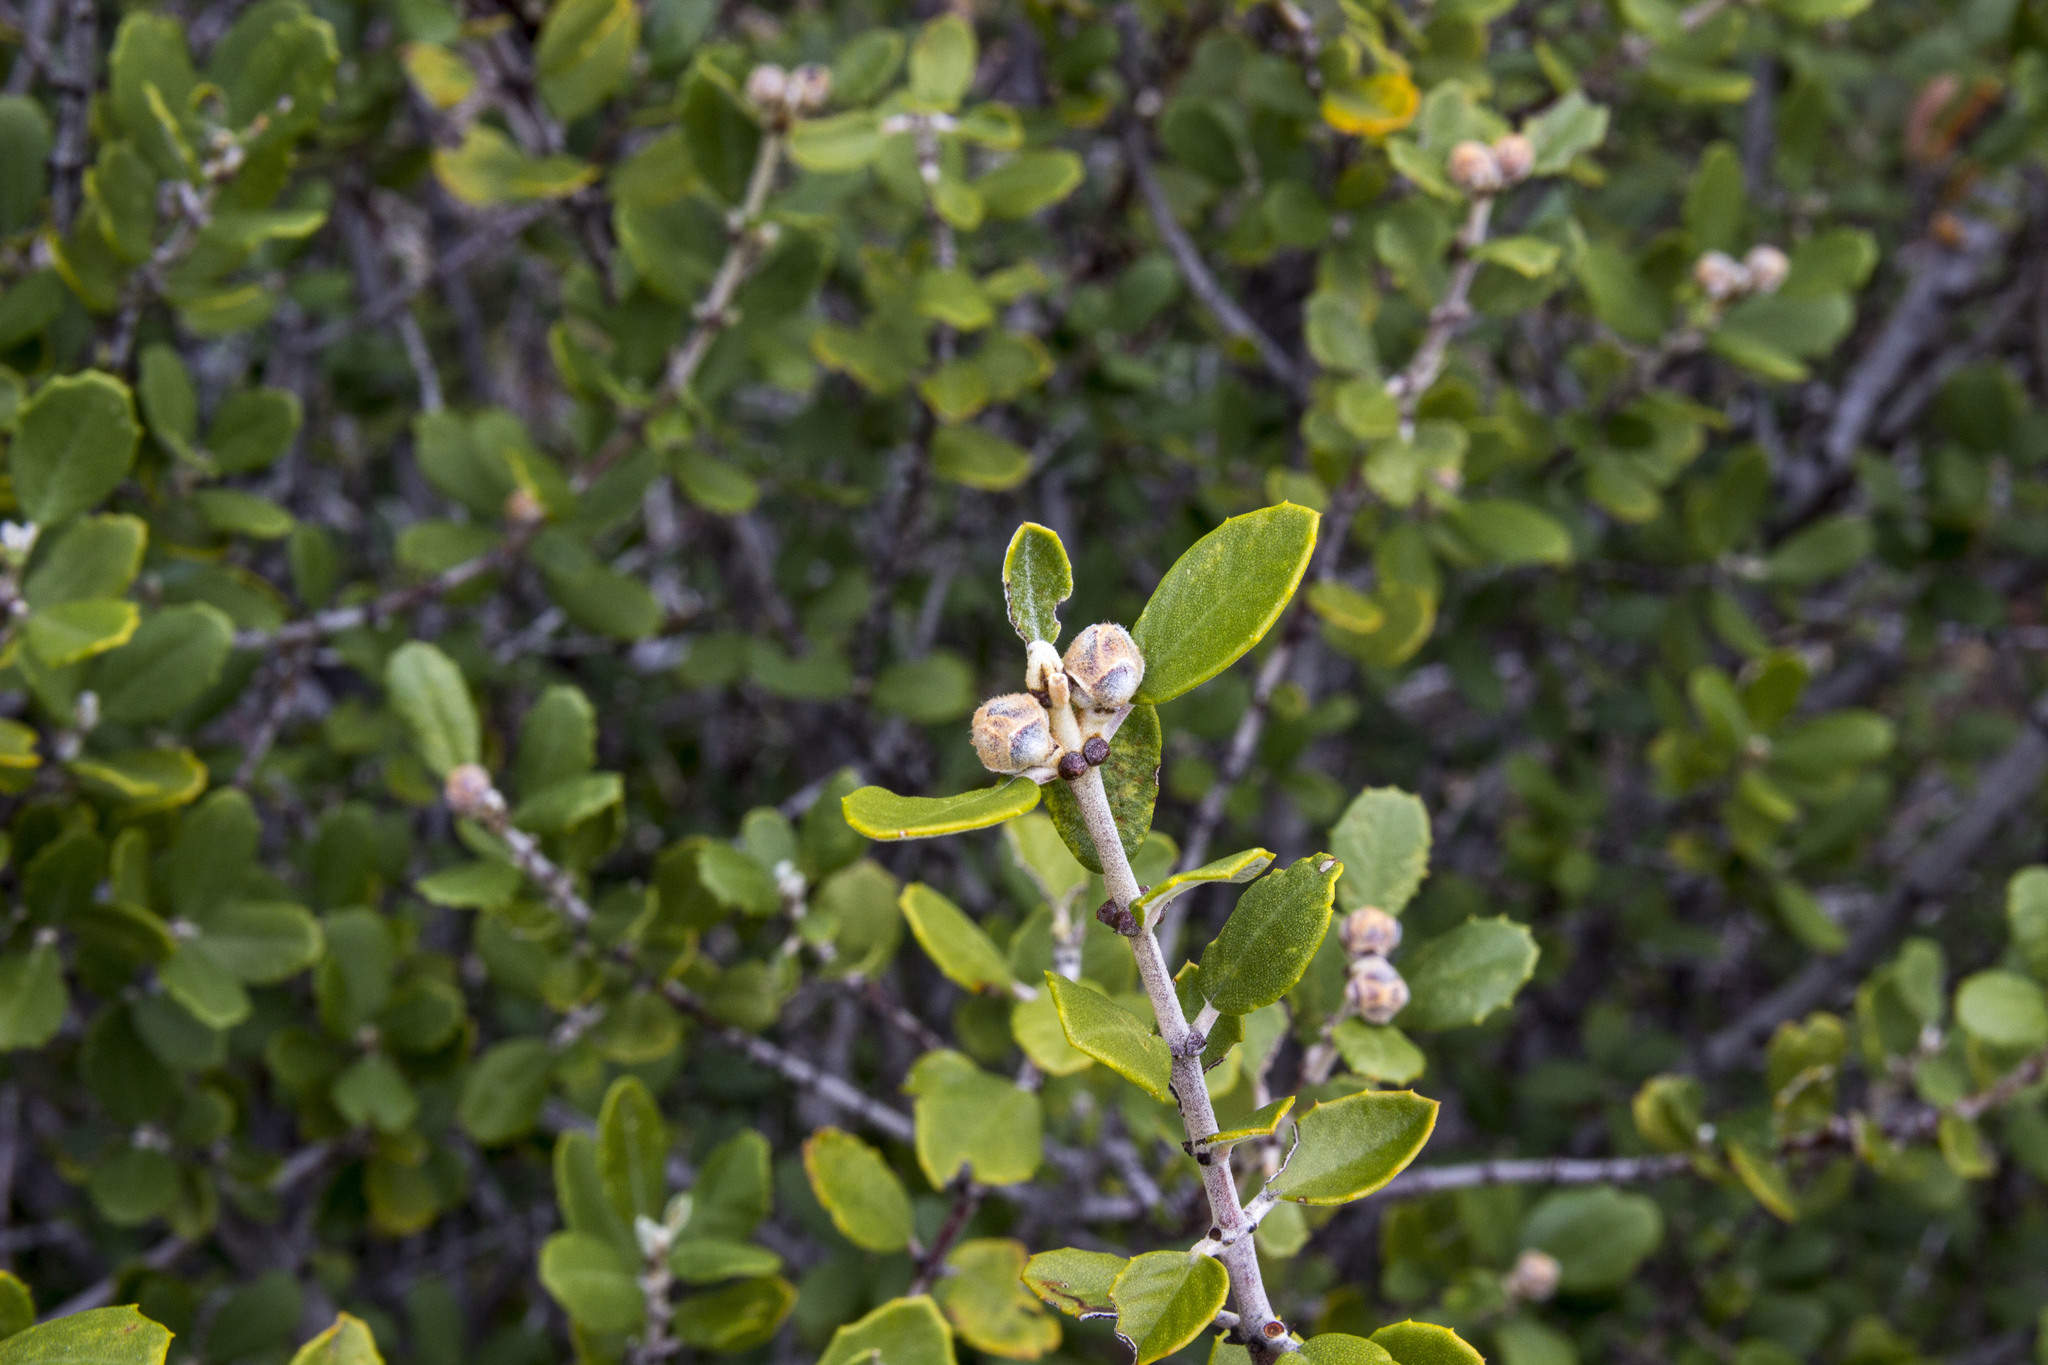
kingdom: Plantae
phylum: Tracheophyta
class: Magnoliopsida
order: Rosales
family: Rhamnaceae
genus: Ceanothus
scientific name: Ceanothus crassifolius
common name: Hoaryleaf ceanothus
